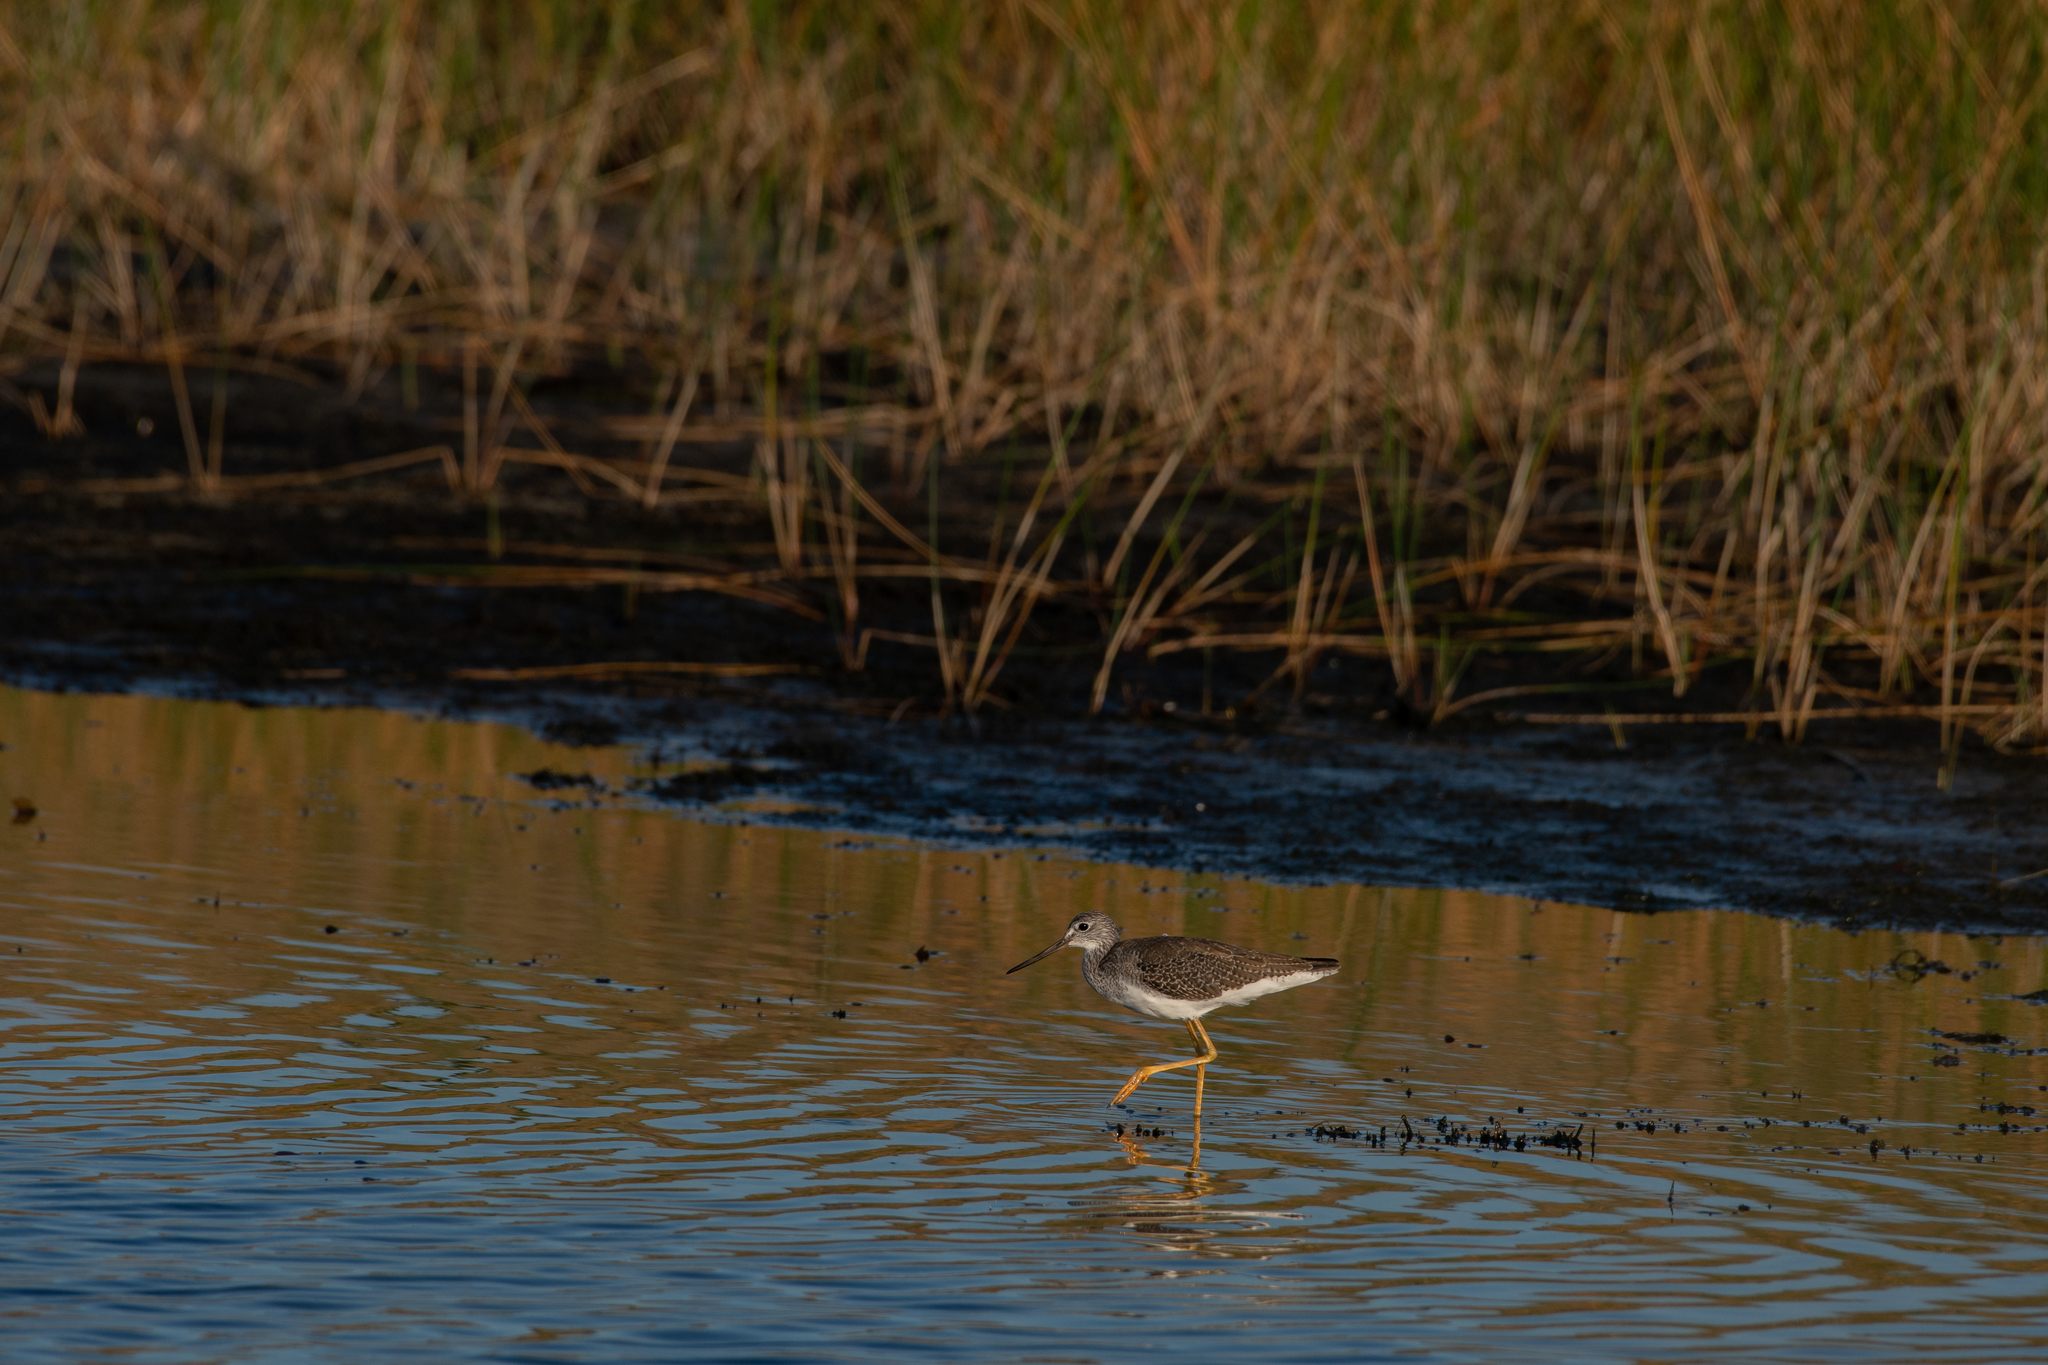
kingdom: Animalia
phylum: Chordata
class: Aves
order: Charadriiformes
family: Scolopacidae
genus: Tringa
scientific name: Tringa melanoleuca
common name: Greater yellowlegs
